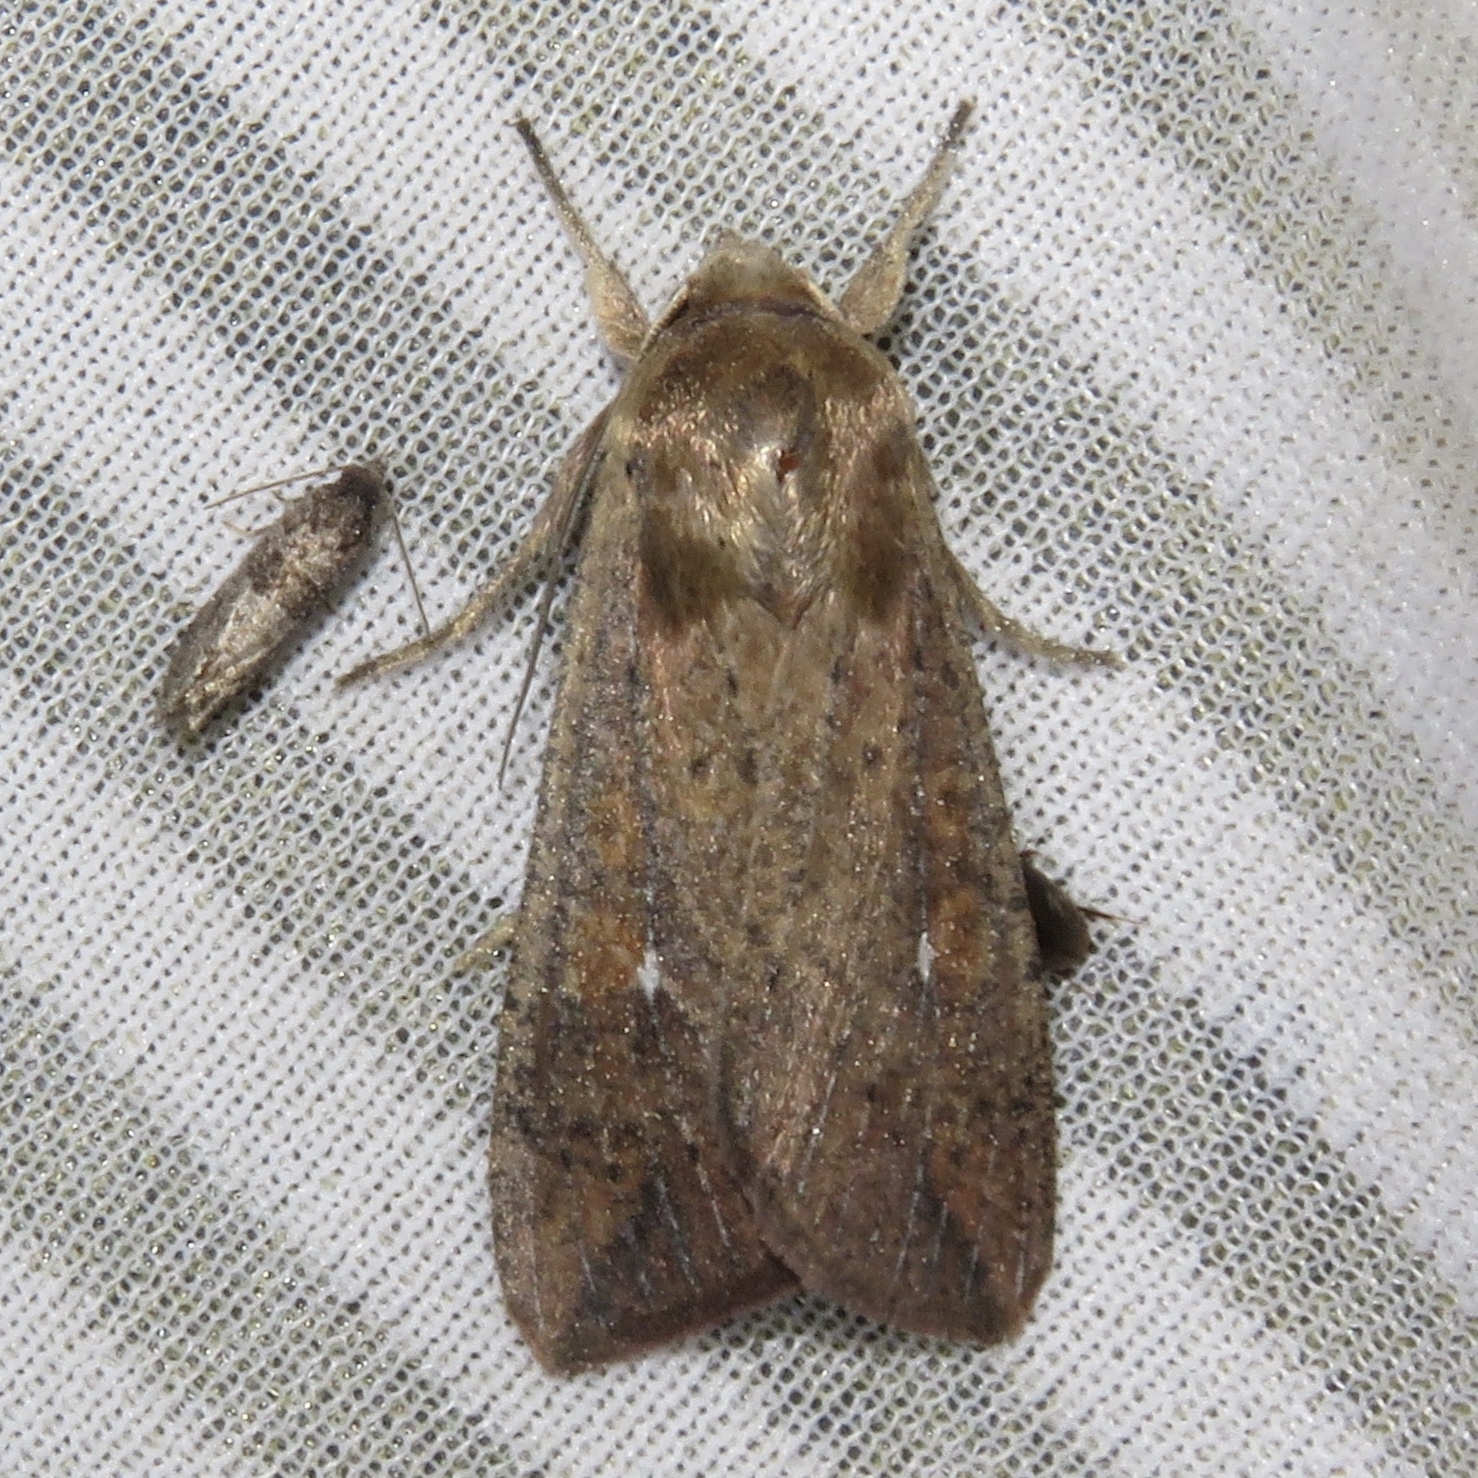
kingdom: Animalia
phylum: Arthropoda
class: Insecta
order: Lepidoptera
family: Noctuidae
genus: Mythimna
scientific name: Mythimna unipuncta
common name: White-speck
